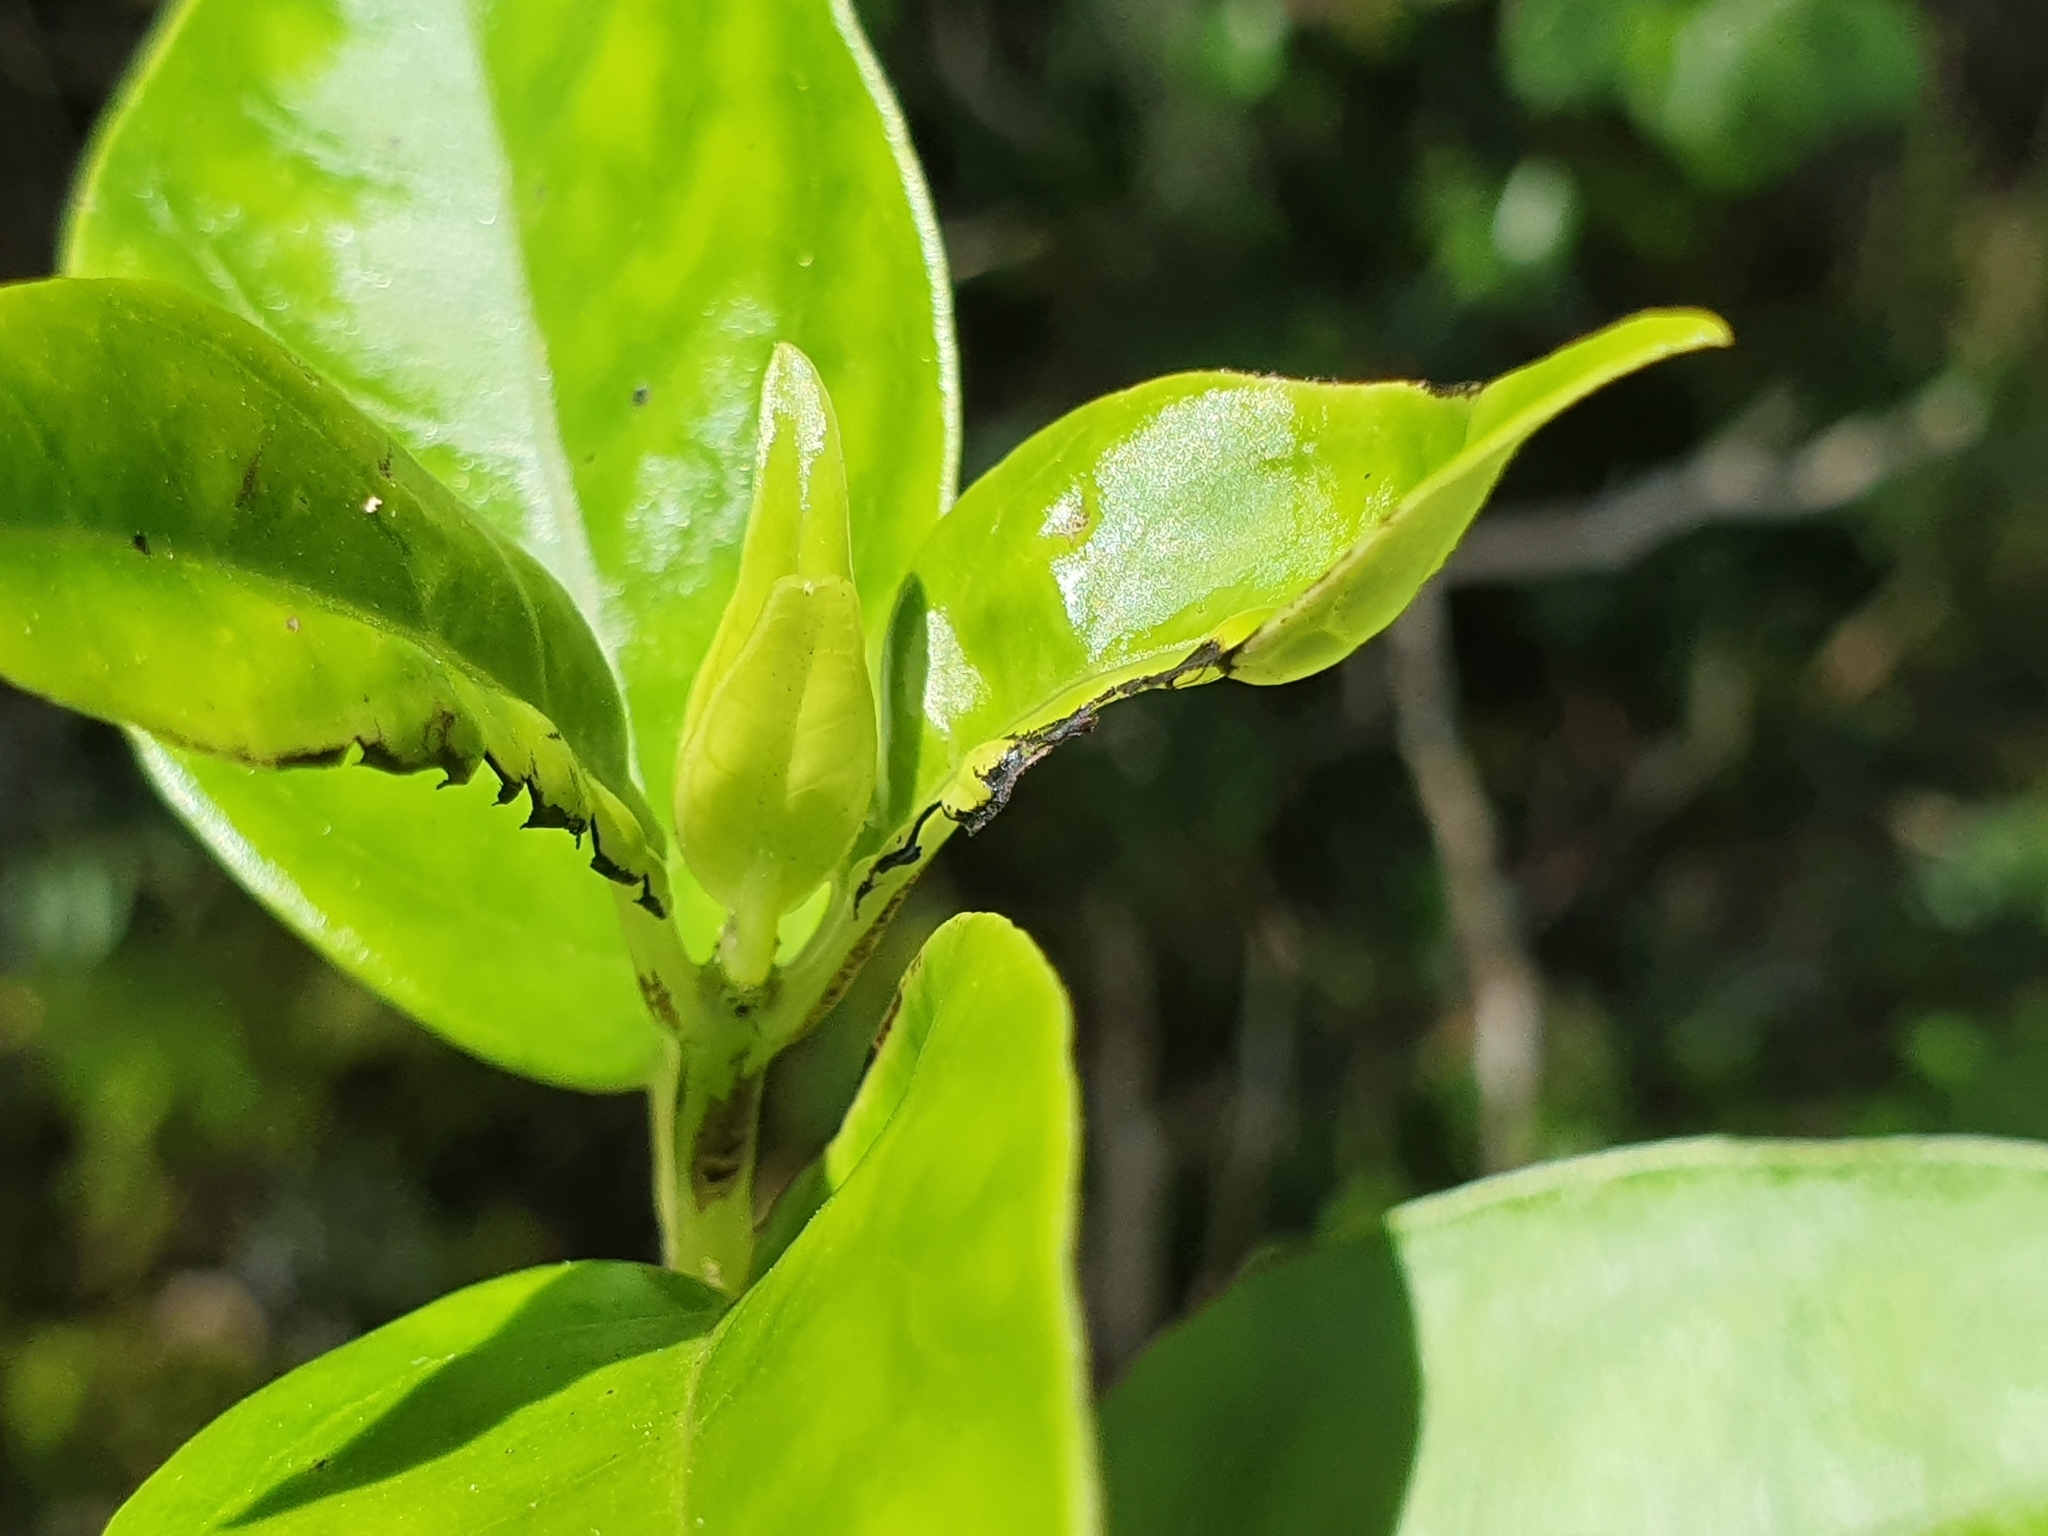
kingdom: Plantae
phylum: Tracheophyta
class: Magnoliopsida
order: Gentianales
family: Loganiaceae
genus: Geniostoma
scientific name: Geniostoma ligustrifolium
